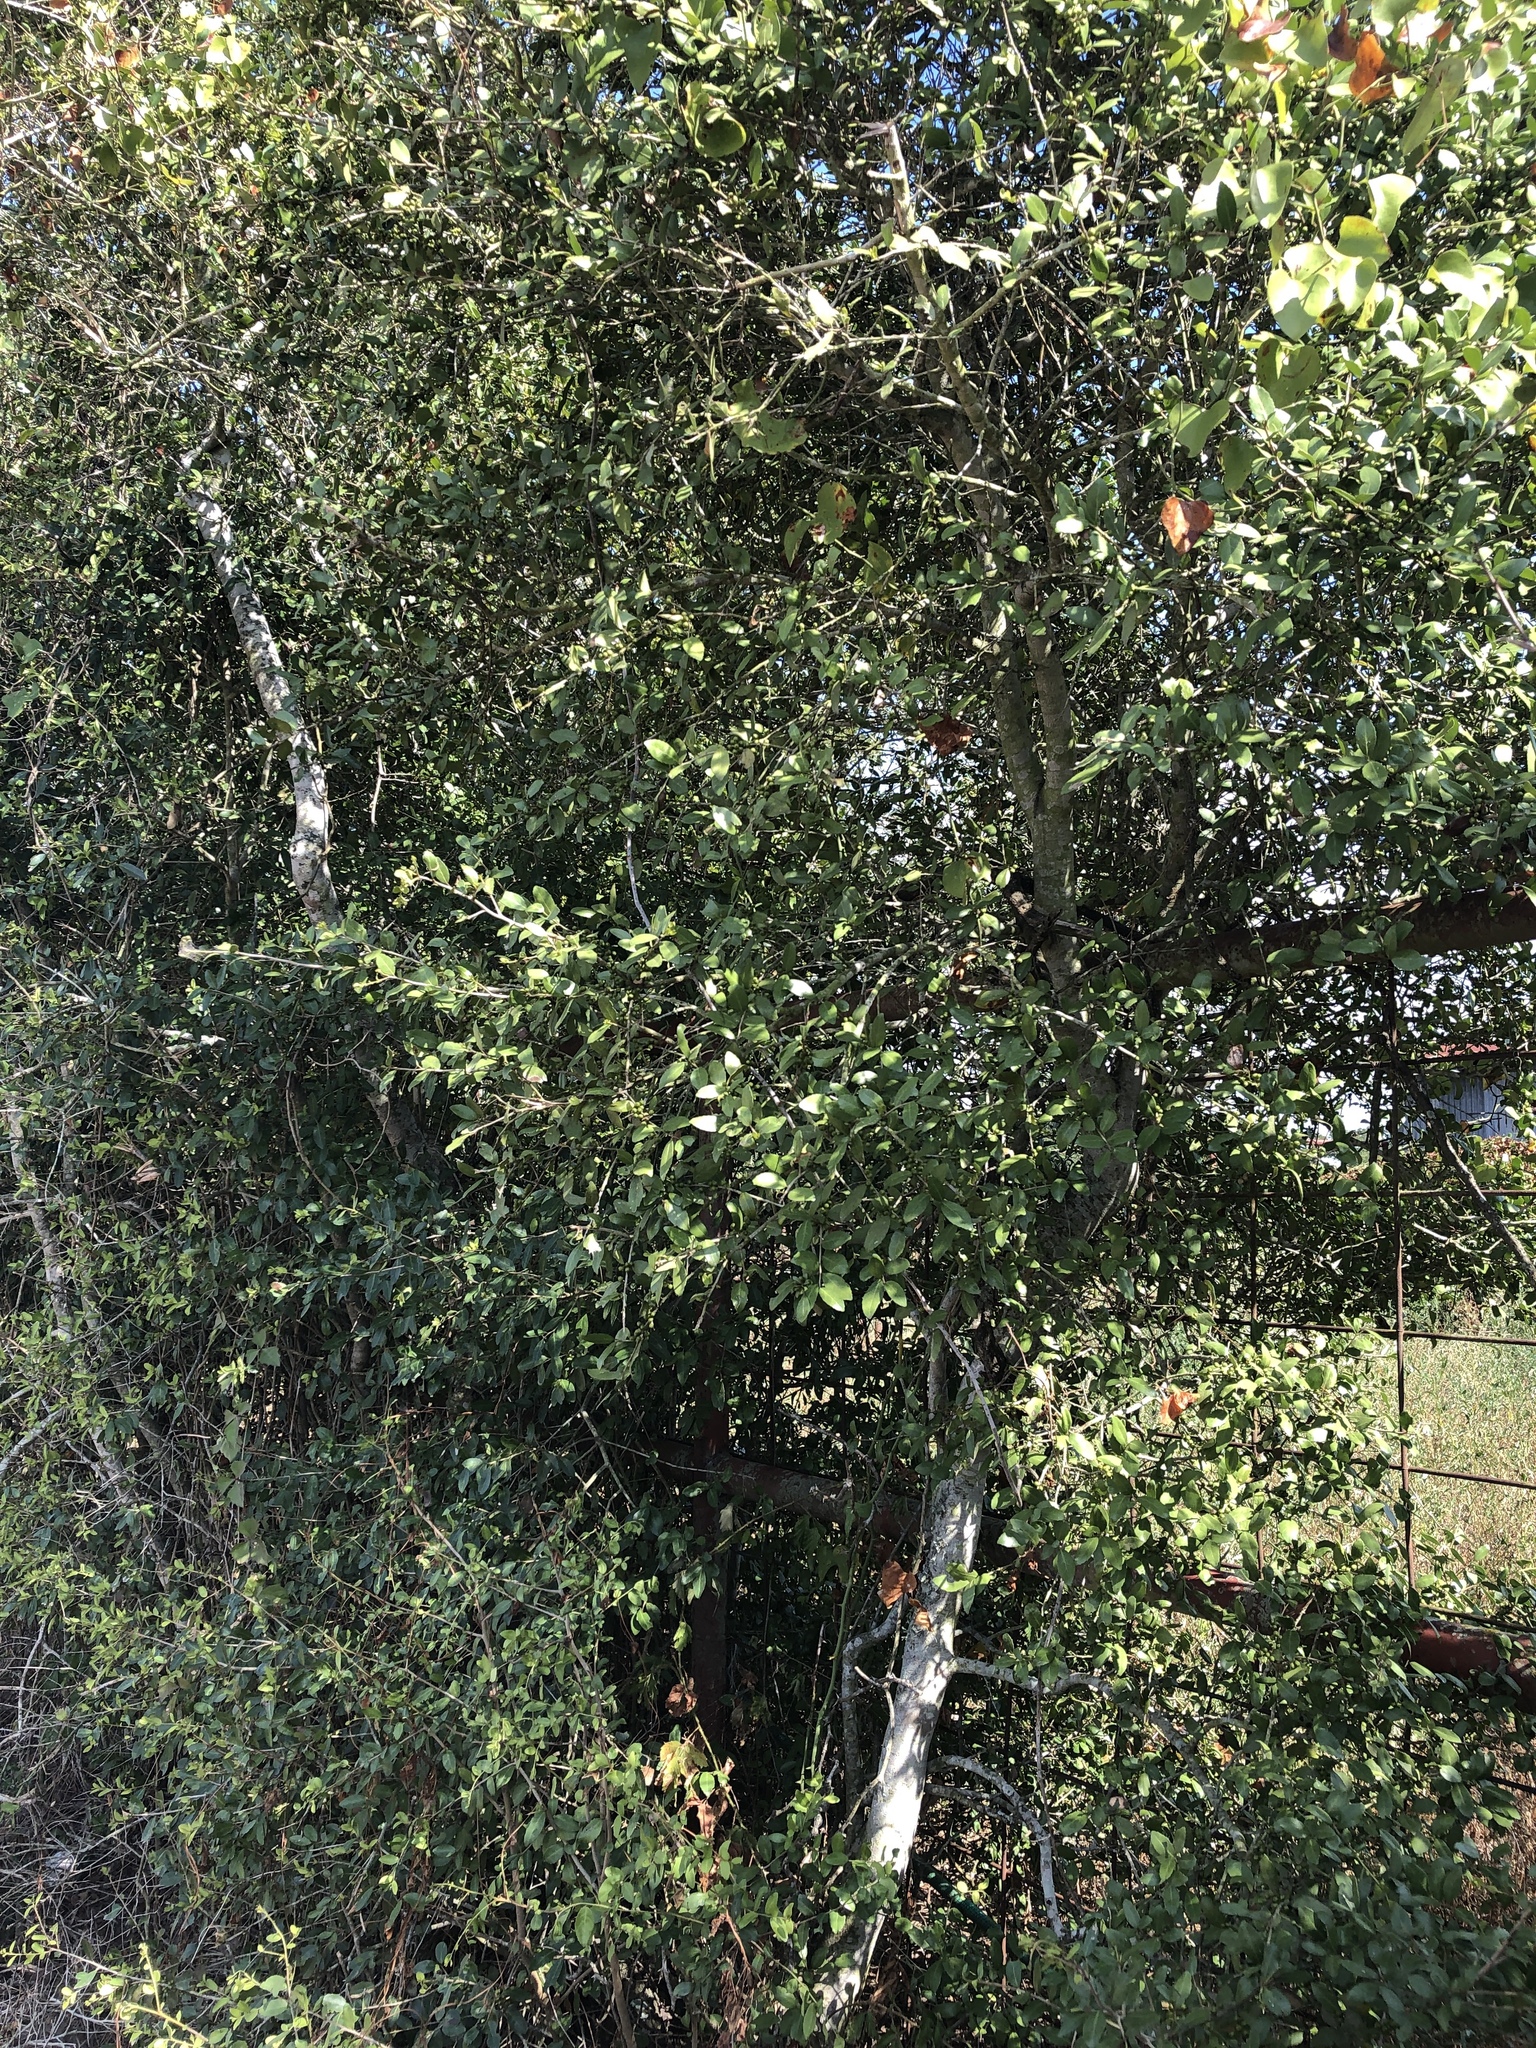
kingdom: Plantae
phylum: Tracheophyta
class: Magnoliopsida
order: Aquifoliales
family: Aquifoliaceae
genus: Ilex
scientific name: Ilex vomitoria
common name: Yaupon holly
